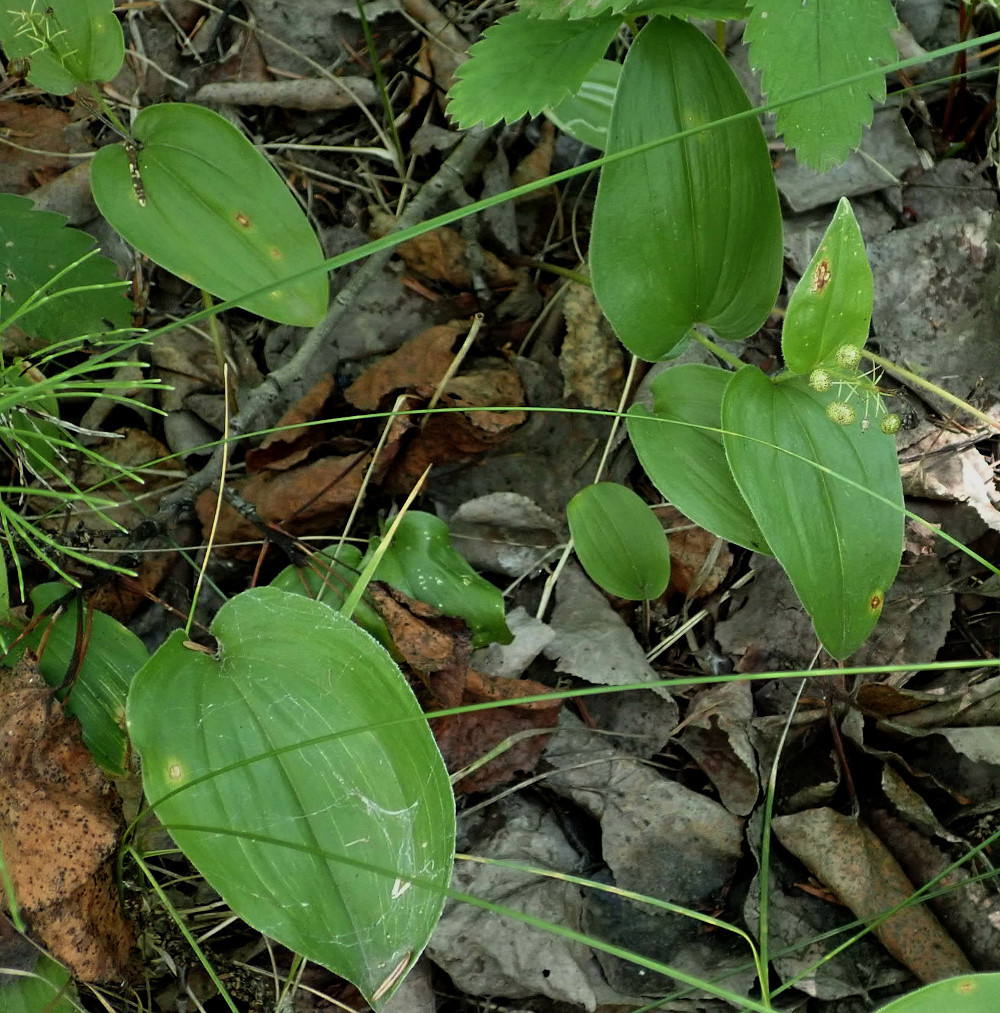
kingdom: Plantae
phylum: Tracheophyta
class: Liliopsida
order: Asparagales
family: Asparagaceae
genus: Maianthemum
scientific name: Maianthemum canadense
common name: False lily-of-the-valley
